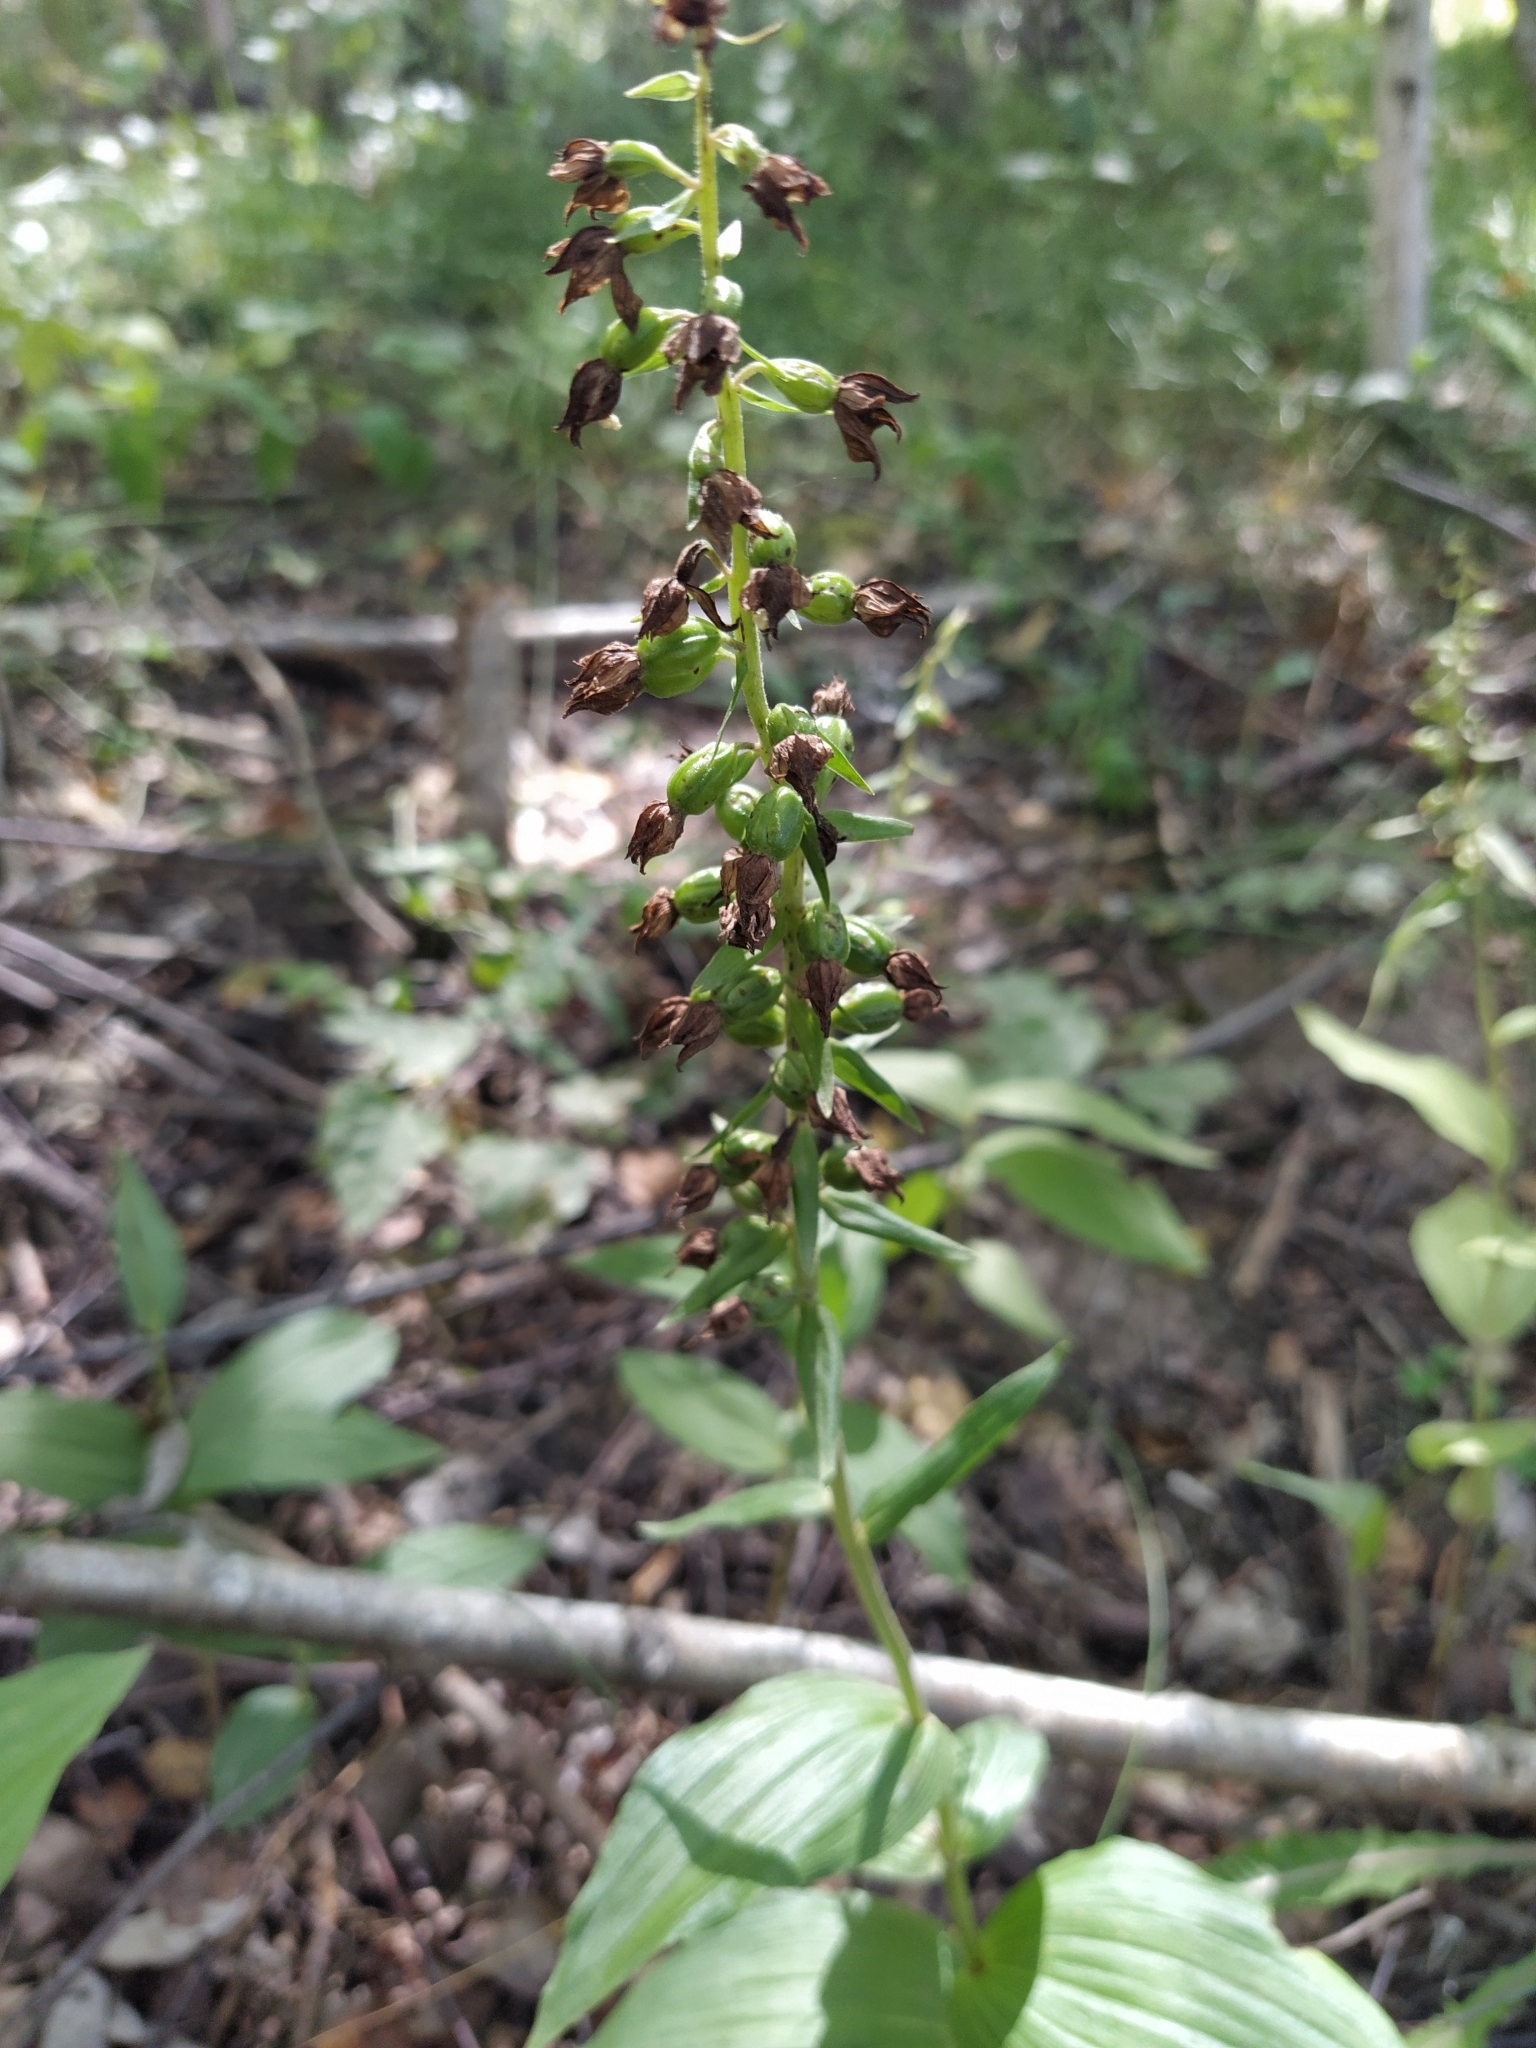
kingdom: Plantae
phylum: Tracheophyta
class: Liliopsida
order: Asparagales
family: Orchidaceae
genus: Epipactis
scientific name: Epipactis helleborine
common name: Broad-leaved helleborine
